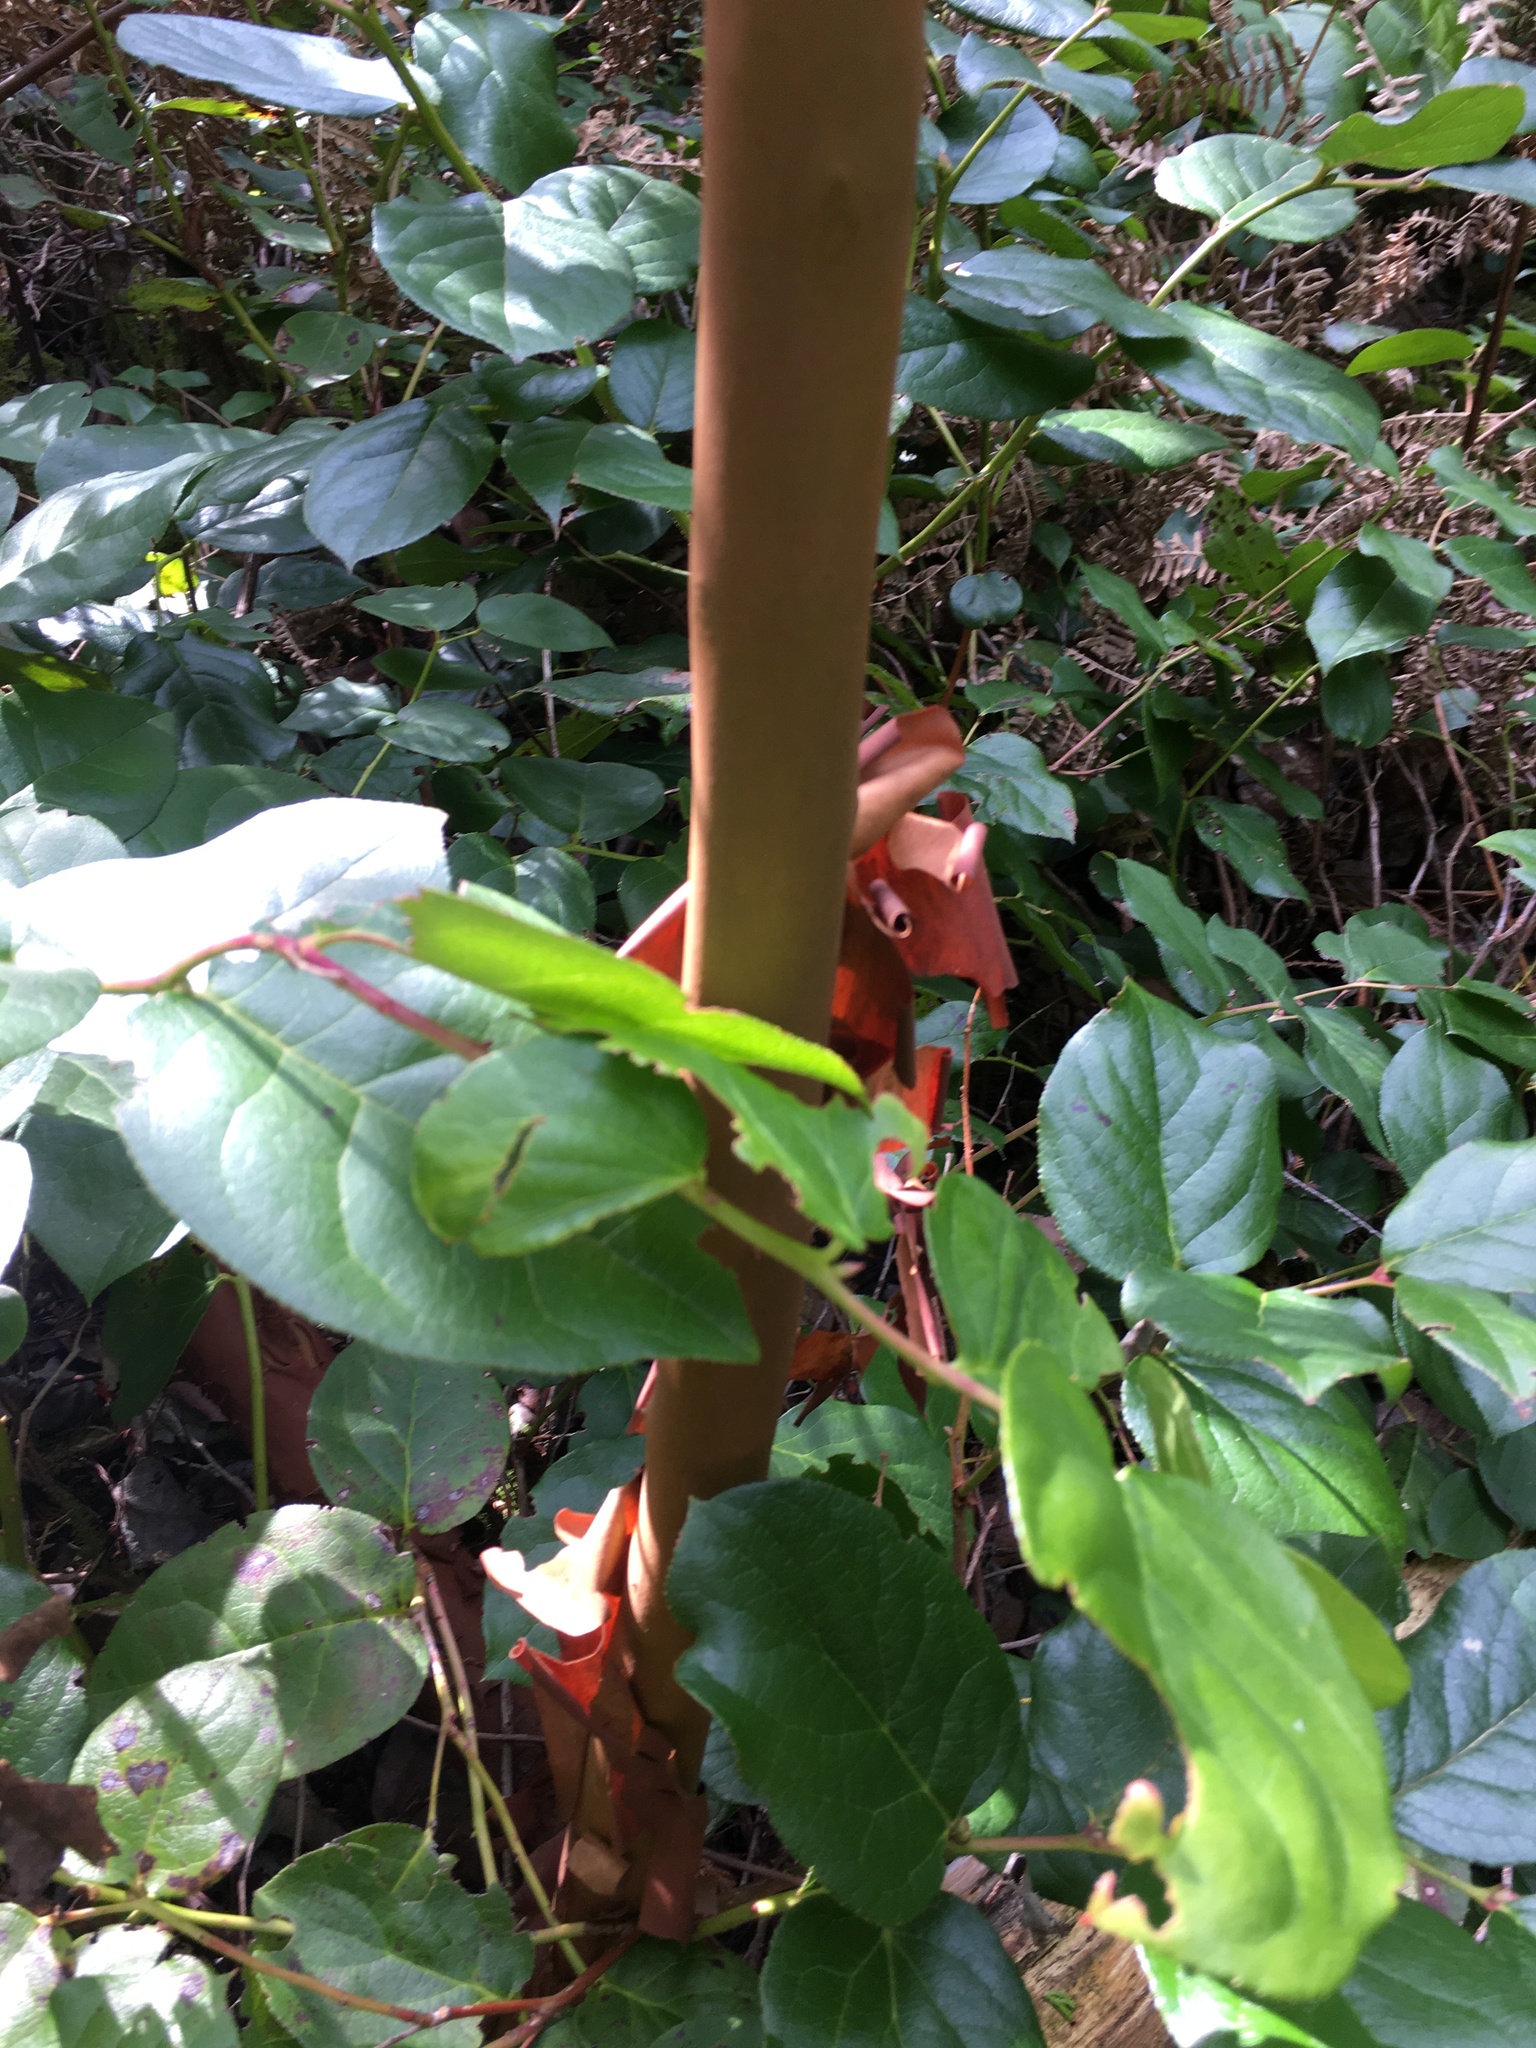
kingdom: Plantae
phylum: Tracheophyta
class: Magnoliopsida
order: Ericales
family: Ericaceae
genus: Arbutus
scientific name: Arbutus menziesii
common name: Pacific madrone
